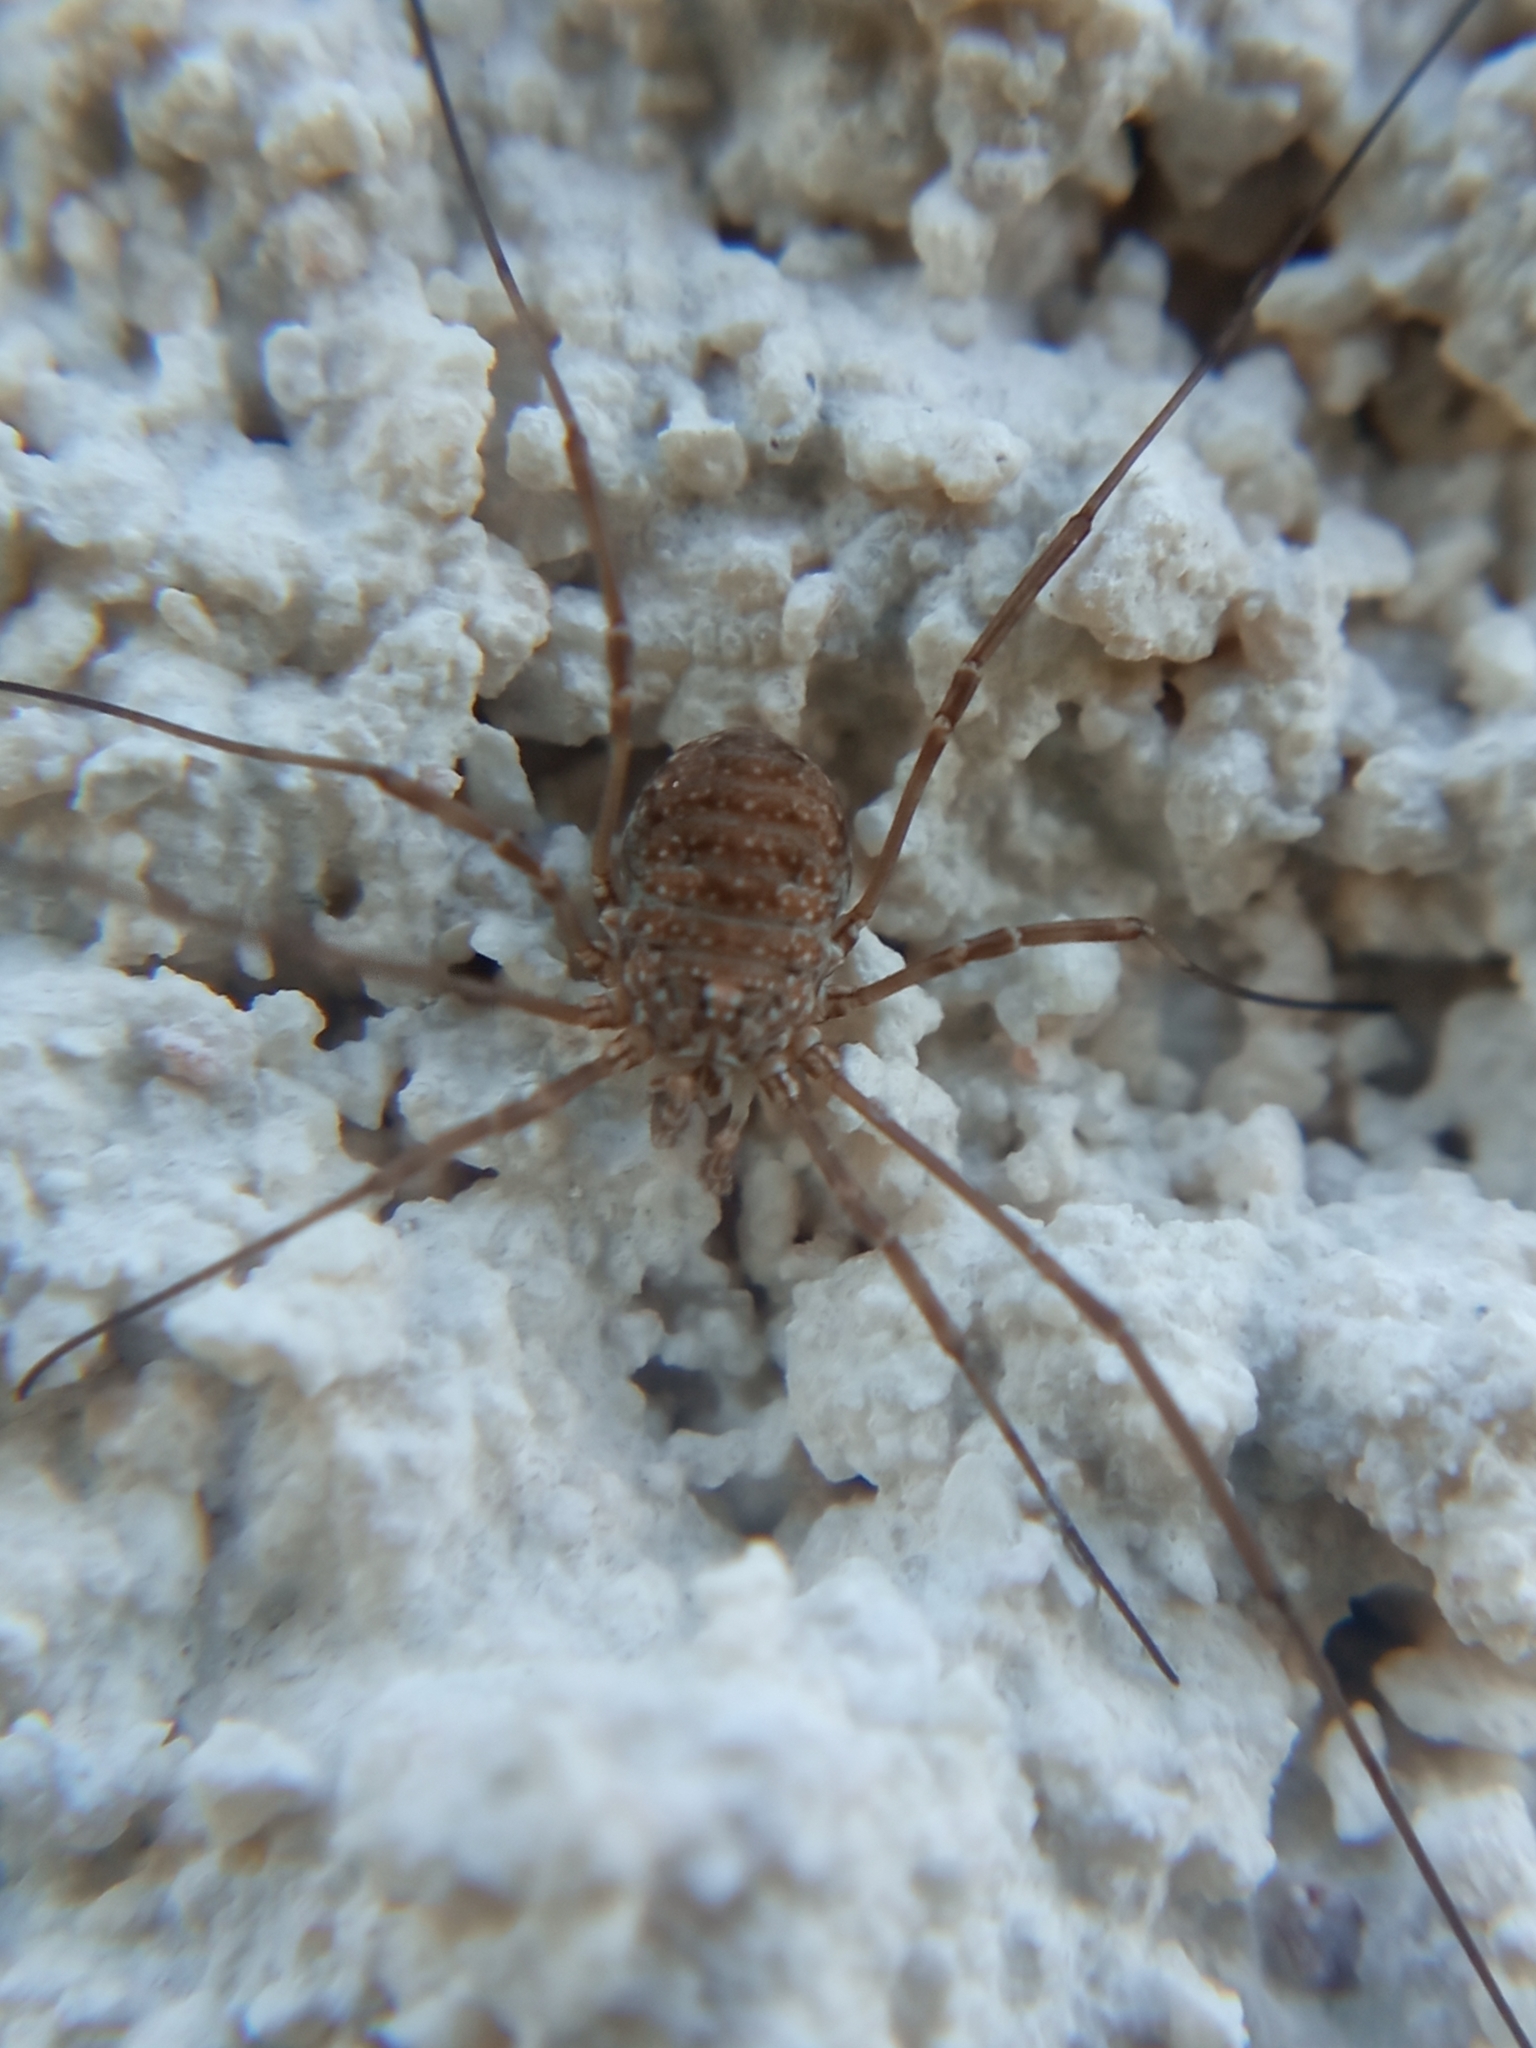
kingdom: Animalia
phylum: Arthropoda
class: Arachnida
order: Opiliones
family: Phalangiidae
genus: Phalangium
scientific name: Phalangium opilio
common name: Daddy longleg
